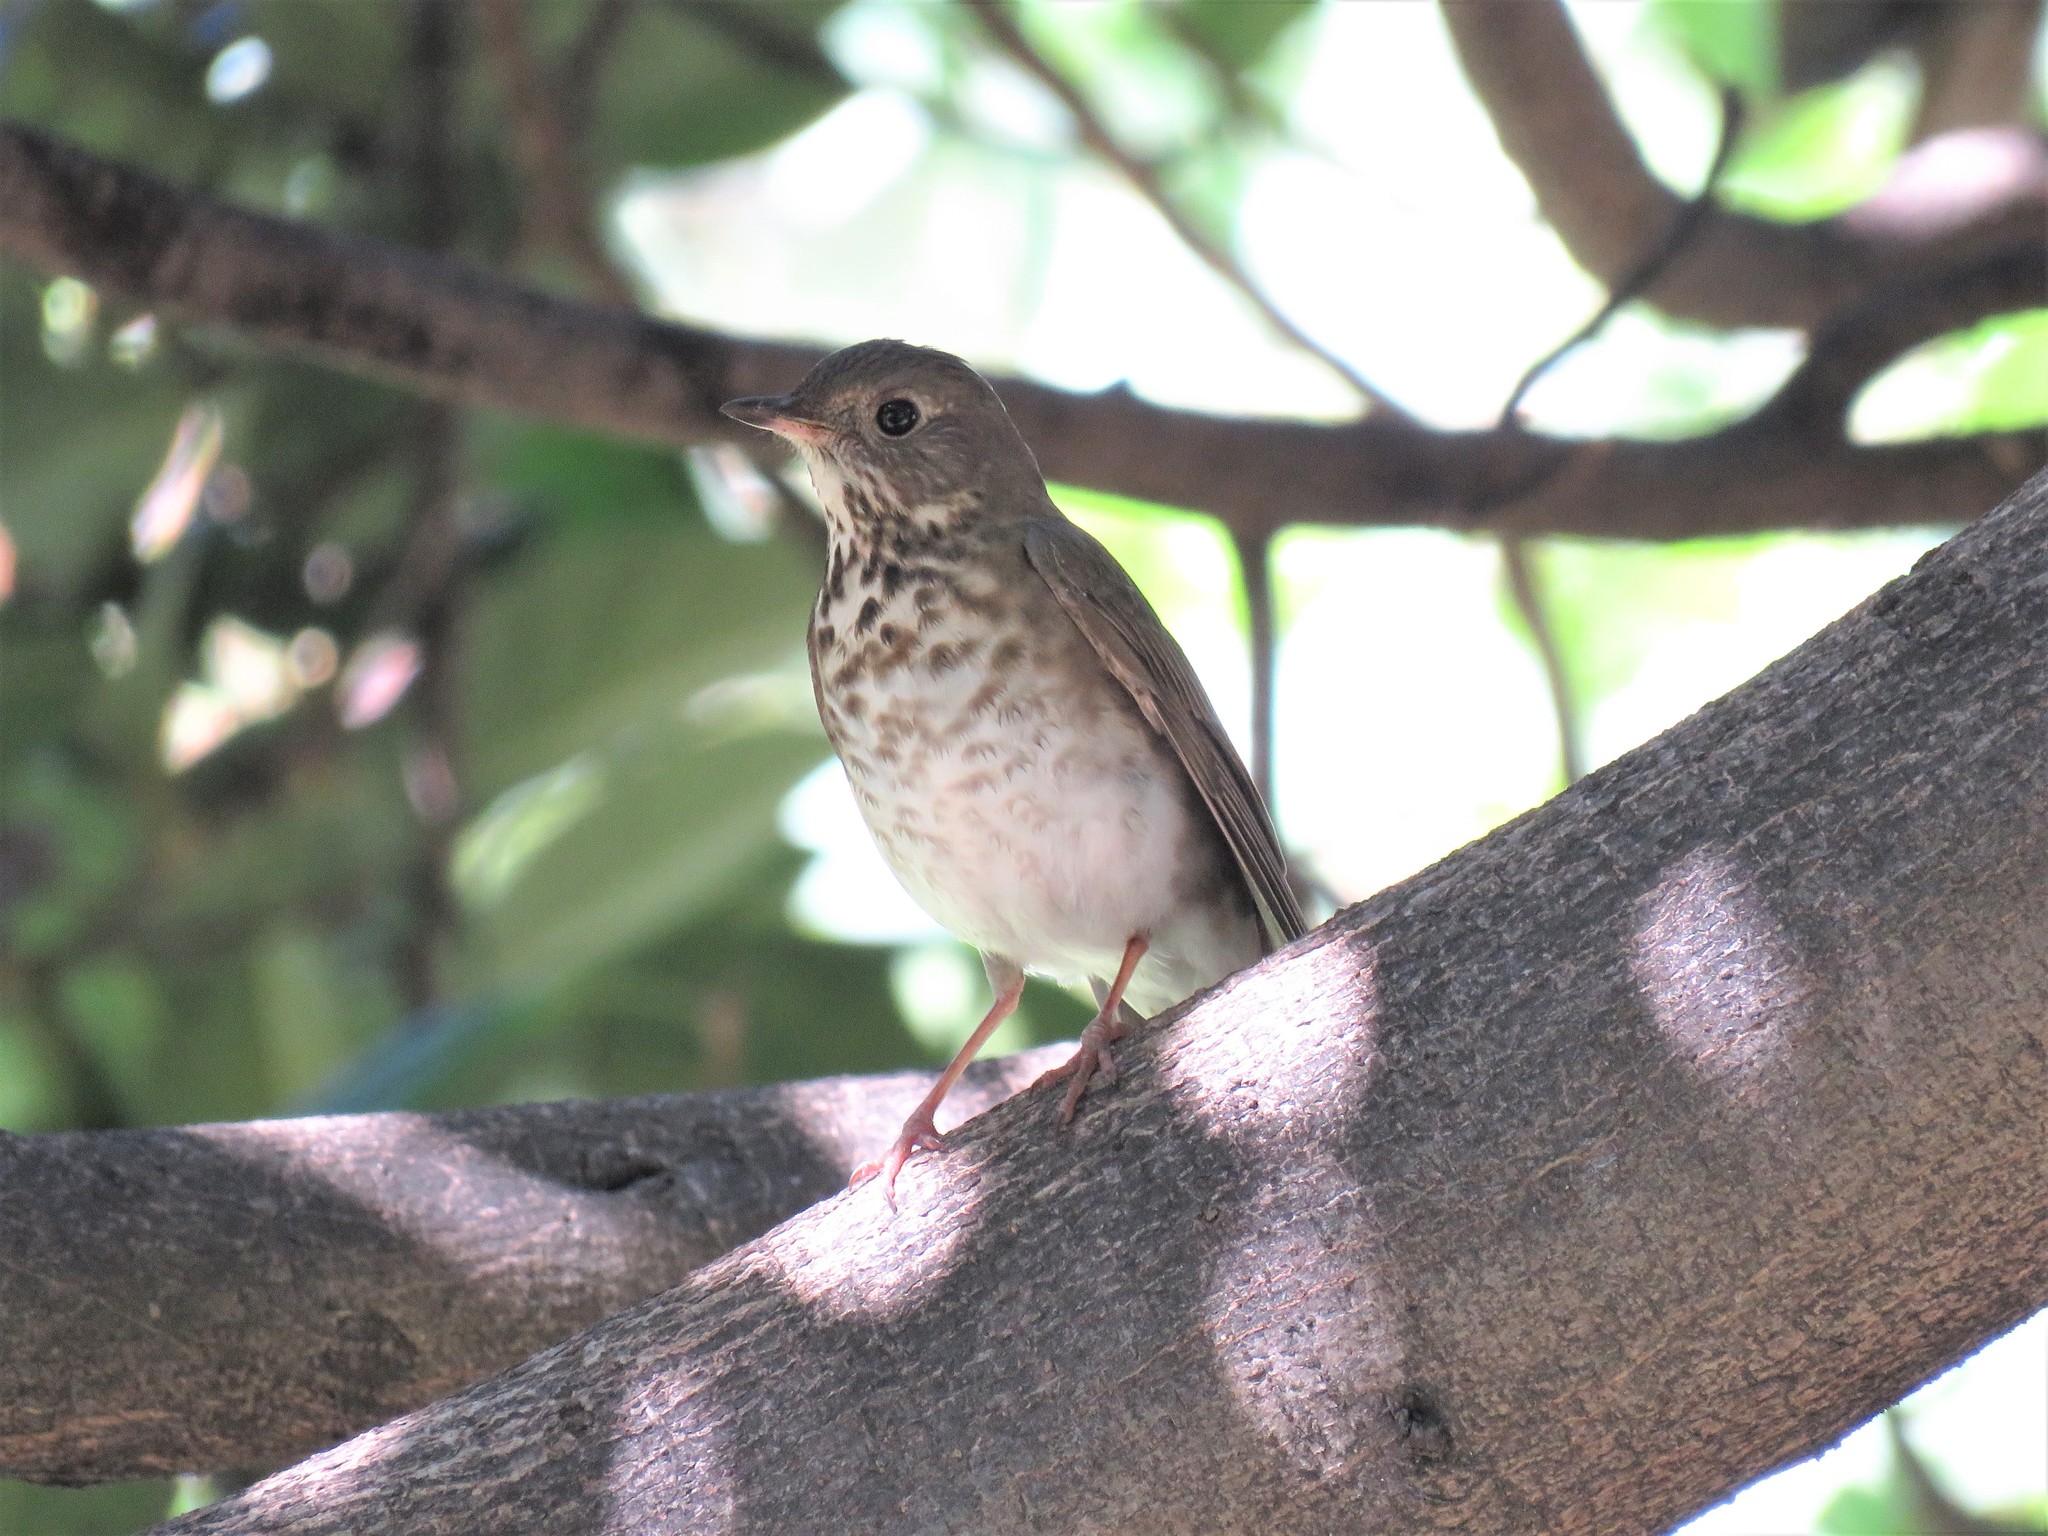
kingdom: Animalia
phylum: Chordata
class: Aves
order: Passeriformes
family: Turdidae
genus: Catharus
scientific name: Catharus minimus
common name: Grey-cheeked thrush
